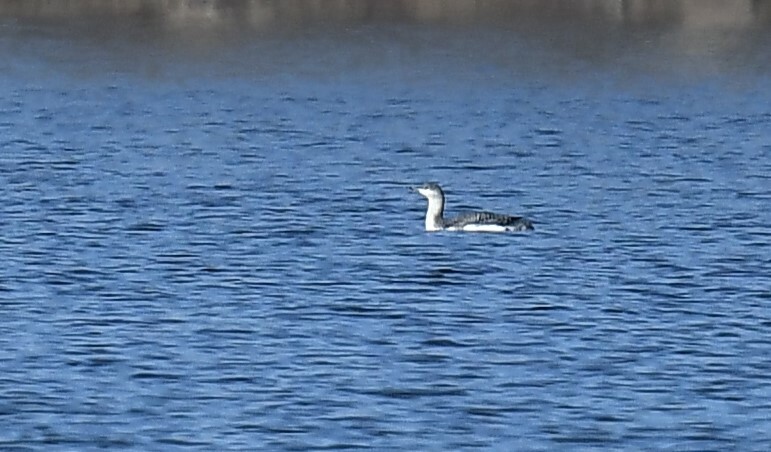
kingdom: Animalia
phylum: Chordata
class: Aves
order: Gaviiformes
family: Gaviidae
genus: Gavia
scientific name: Gavia stellata
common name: Red-throated loon
